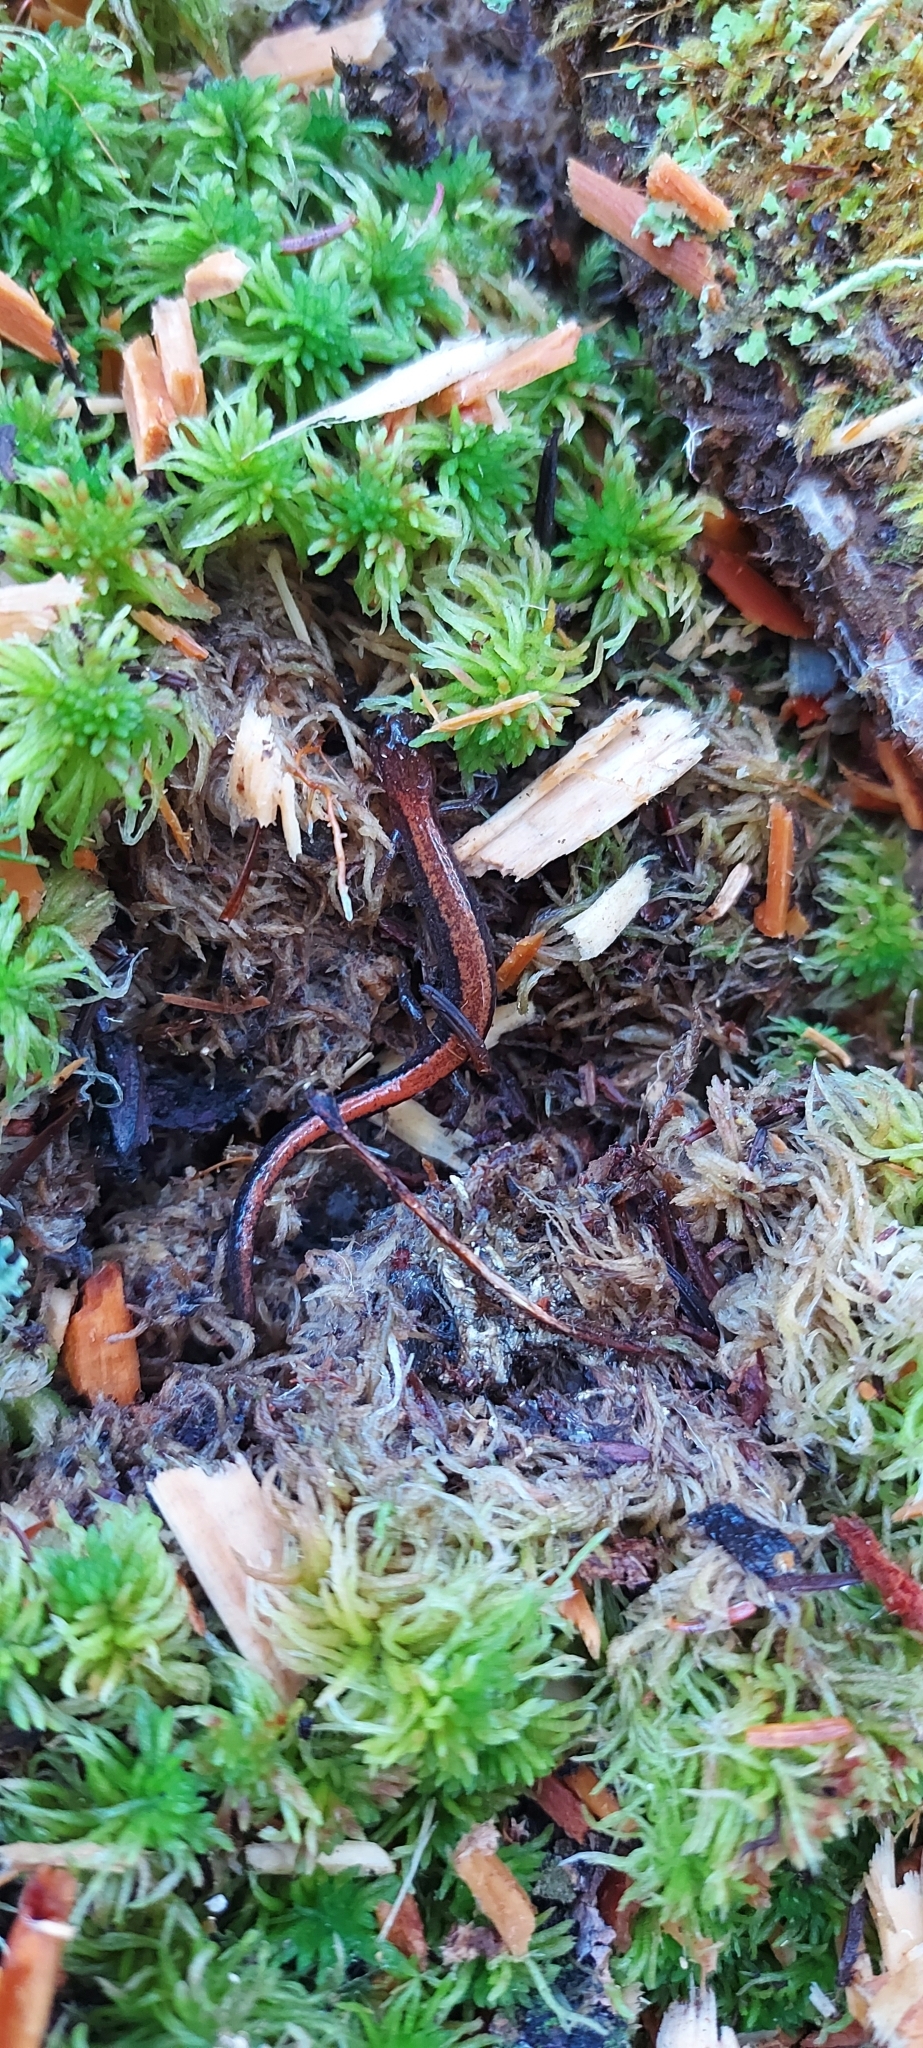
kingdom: Animalia
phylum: Chordata
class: Amphibia
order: Caudata
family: Plethodontidae
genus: Plethodon
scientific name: Plethodon cinereus
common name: Redback salamander
